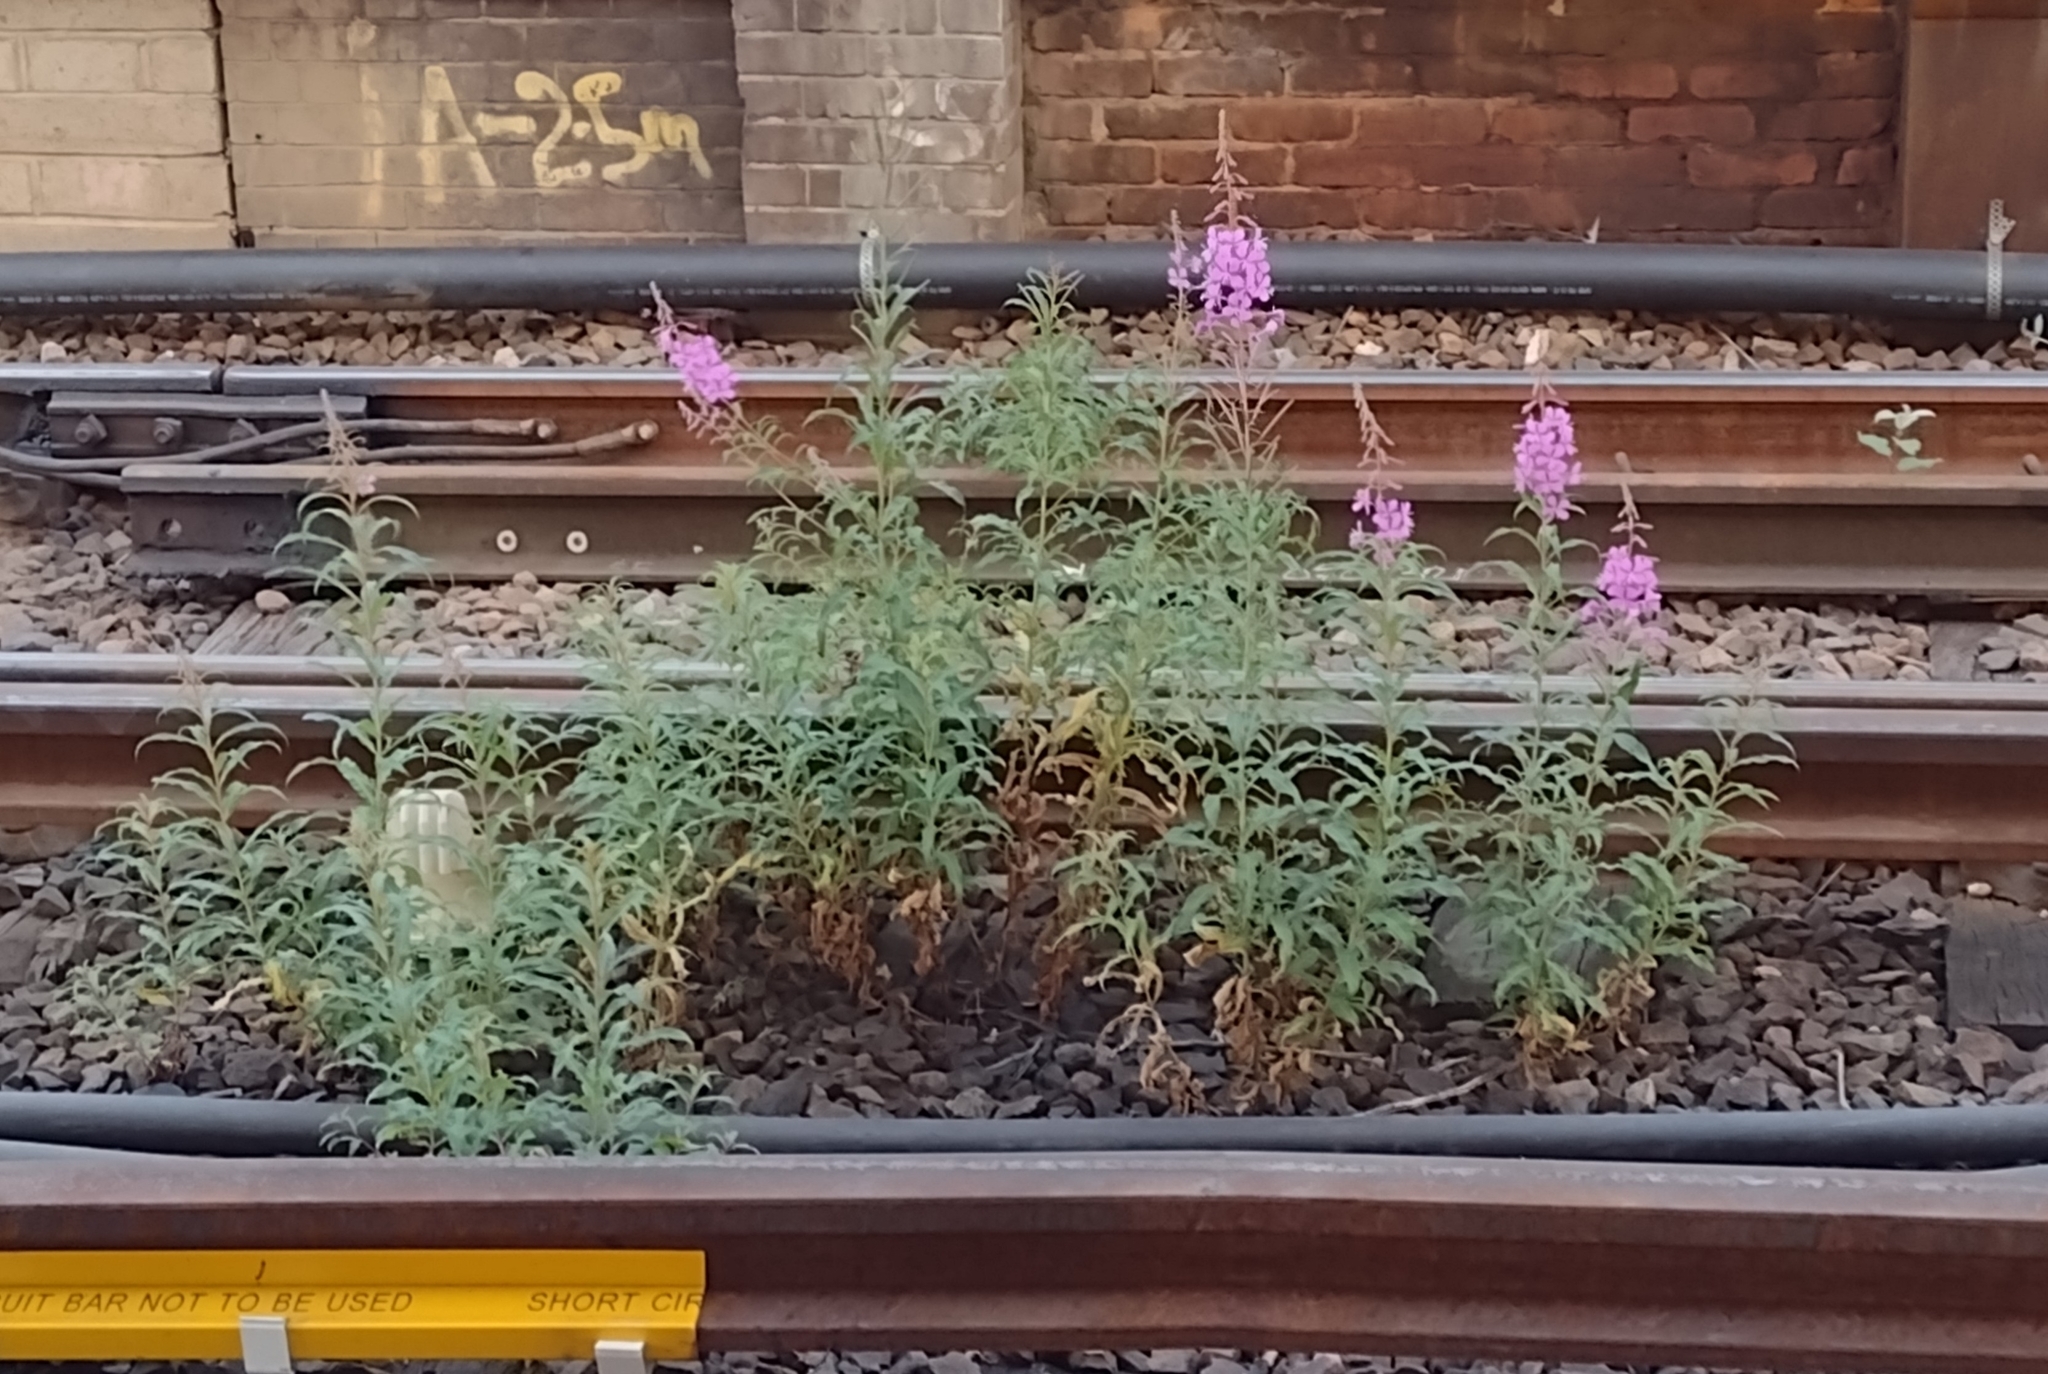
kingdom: Plantae
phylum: Tracheophyta
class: Magnoliopsida
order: Myrtales
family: Onagraceae
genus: Chamaenerion
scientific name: Chamaenerion angustifolium
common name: Fireweed
